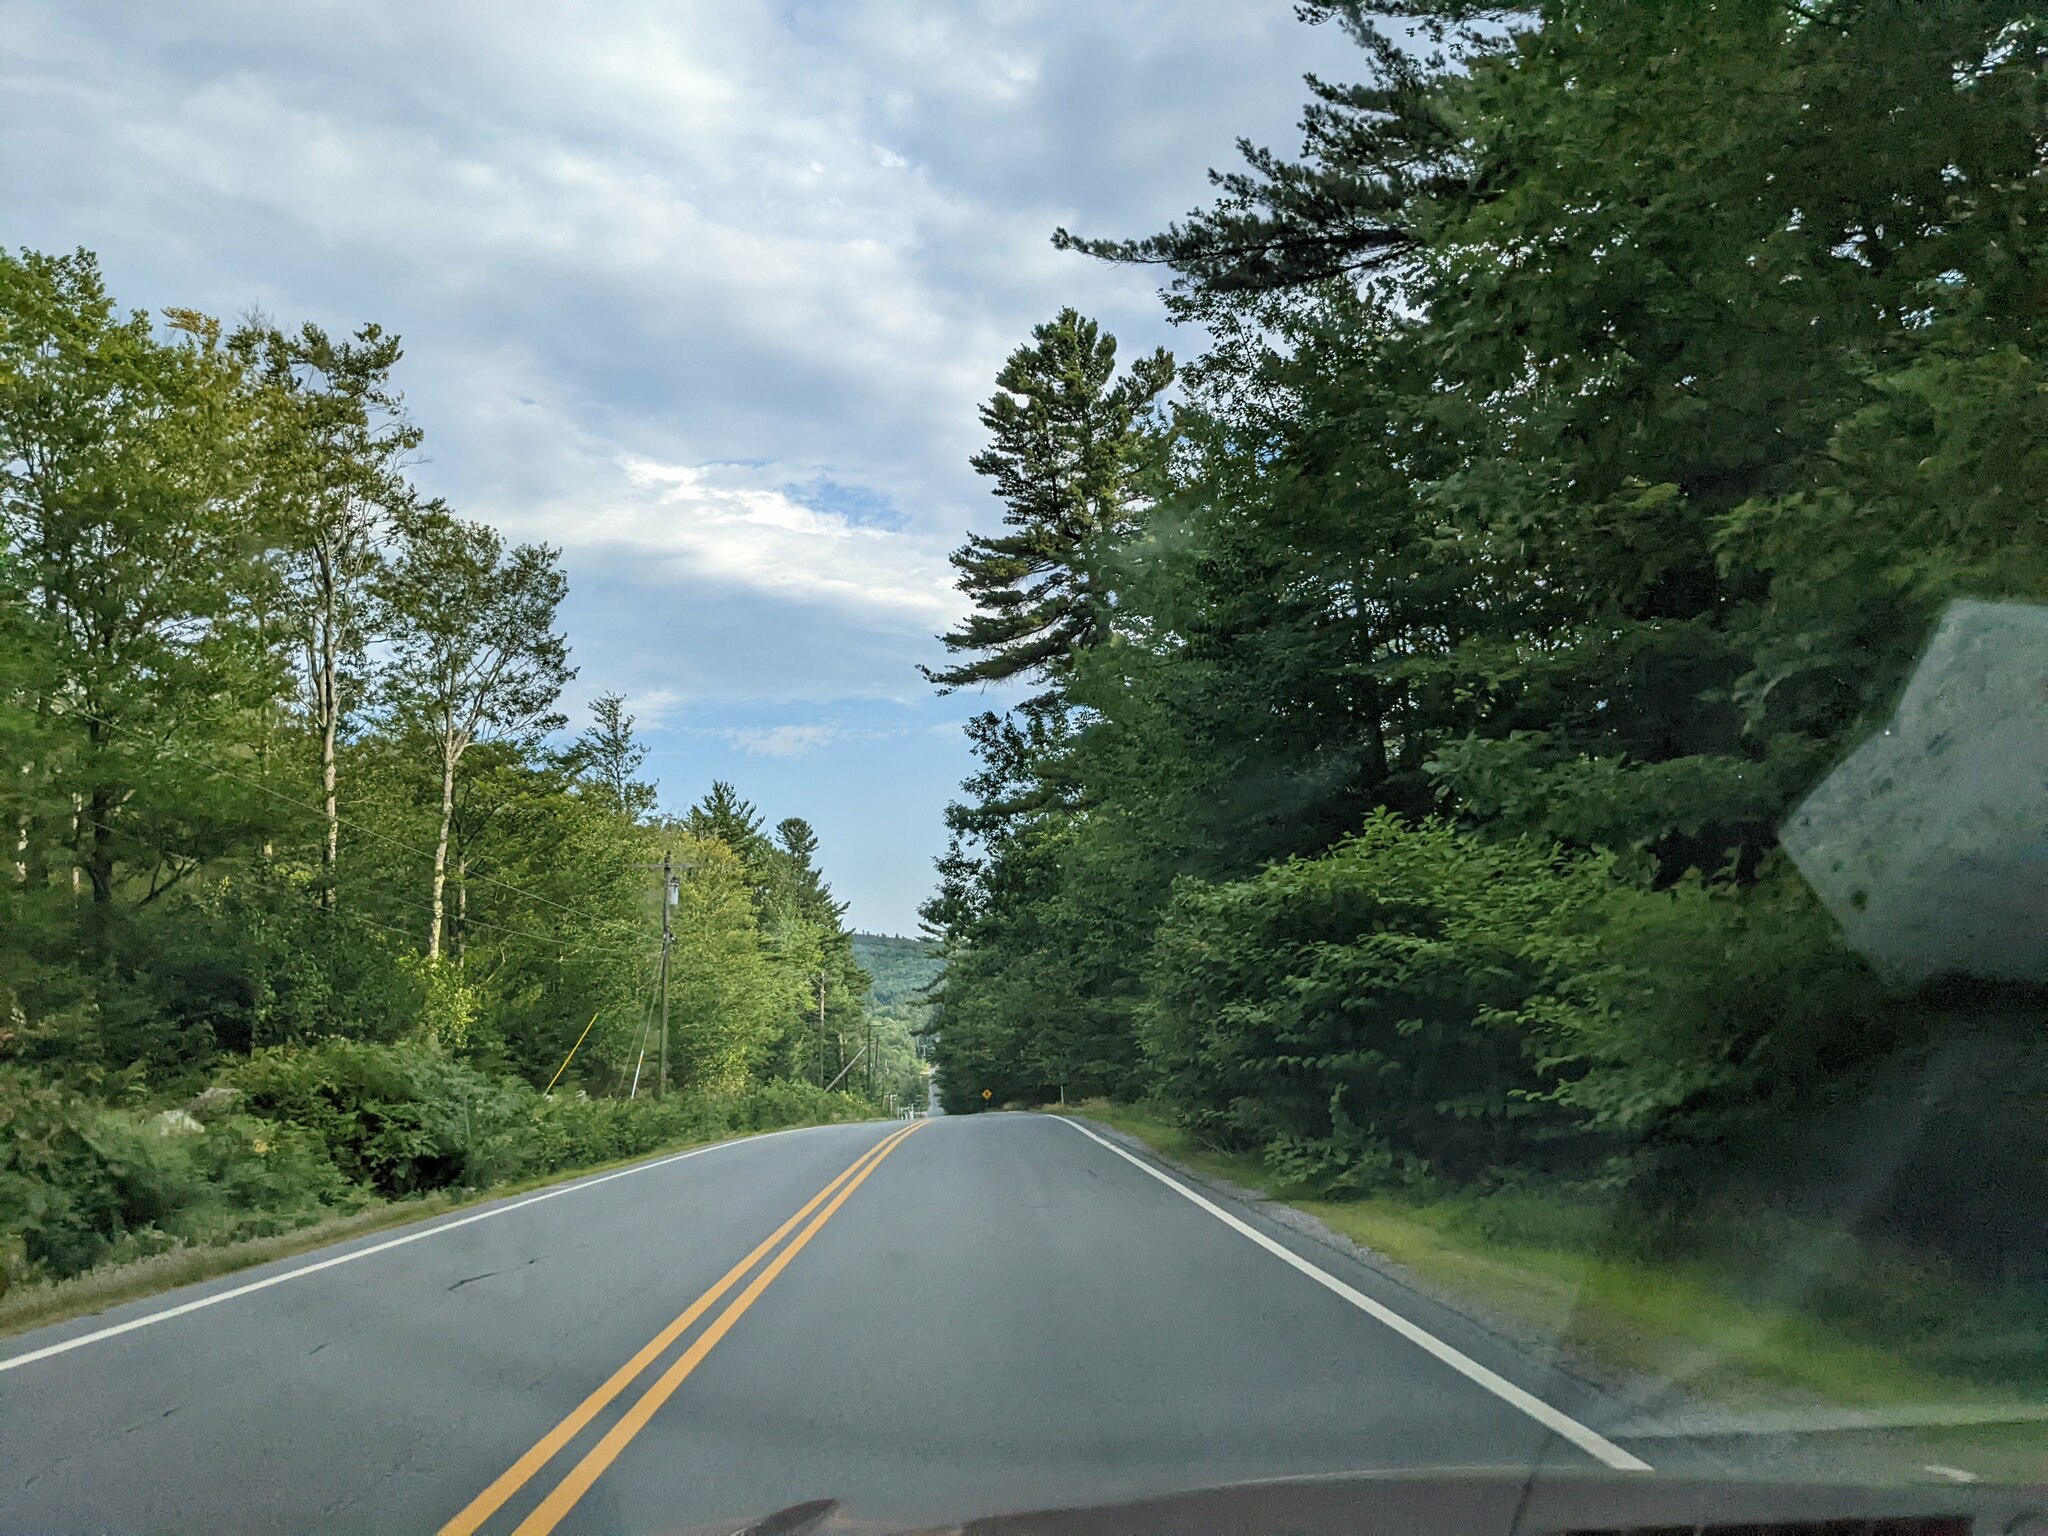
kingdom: Plantae
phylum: Tracheophyta
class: Pinopsida
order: Pinales
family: Pinaceae
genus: Pinus
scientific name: Pinus strobus
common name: Weymouth pine
